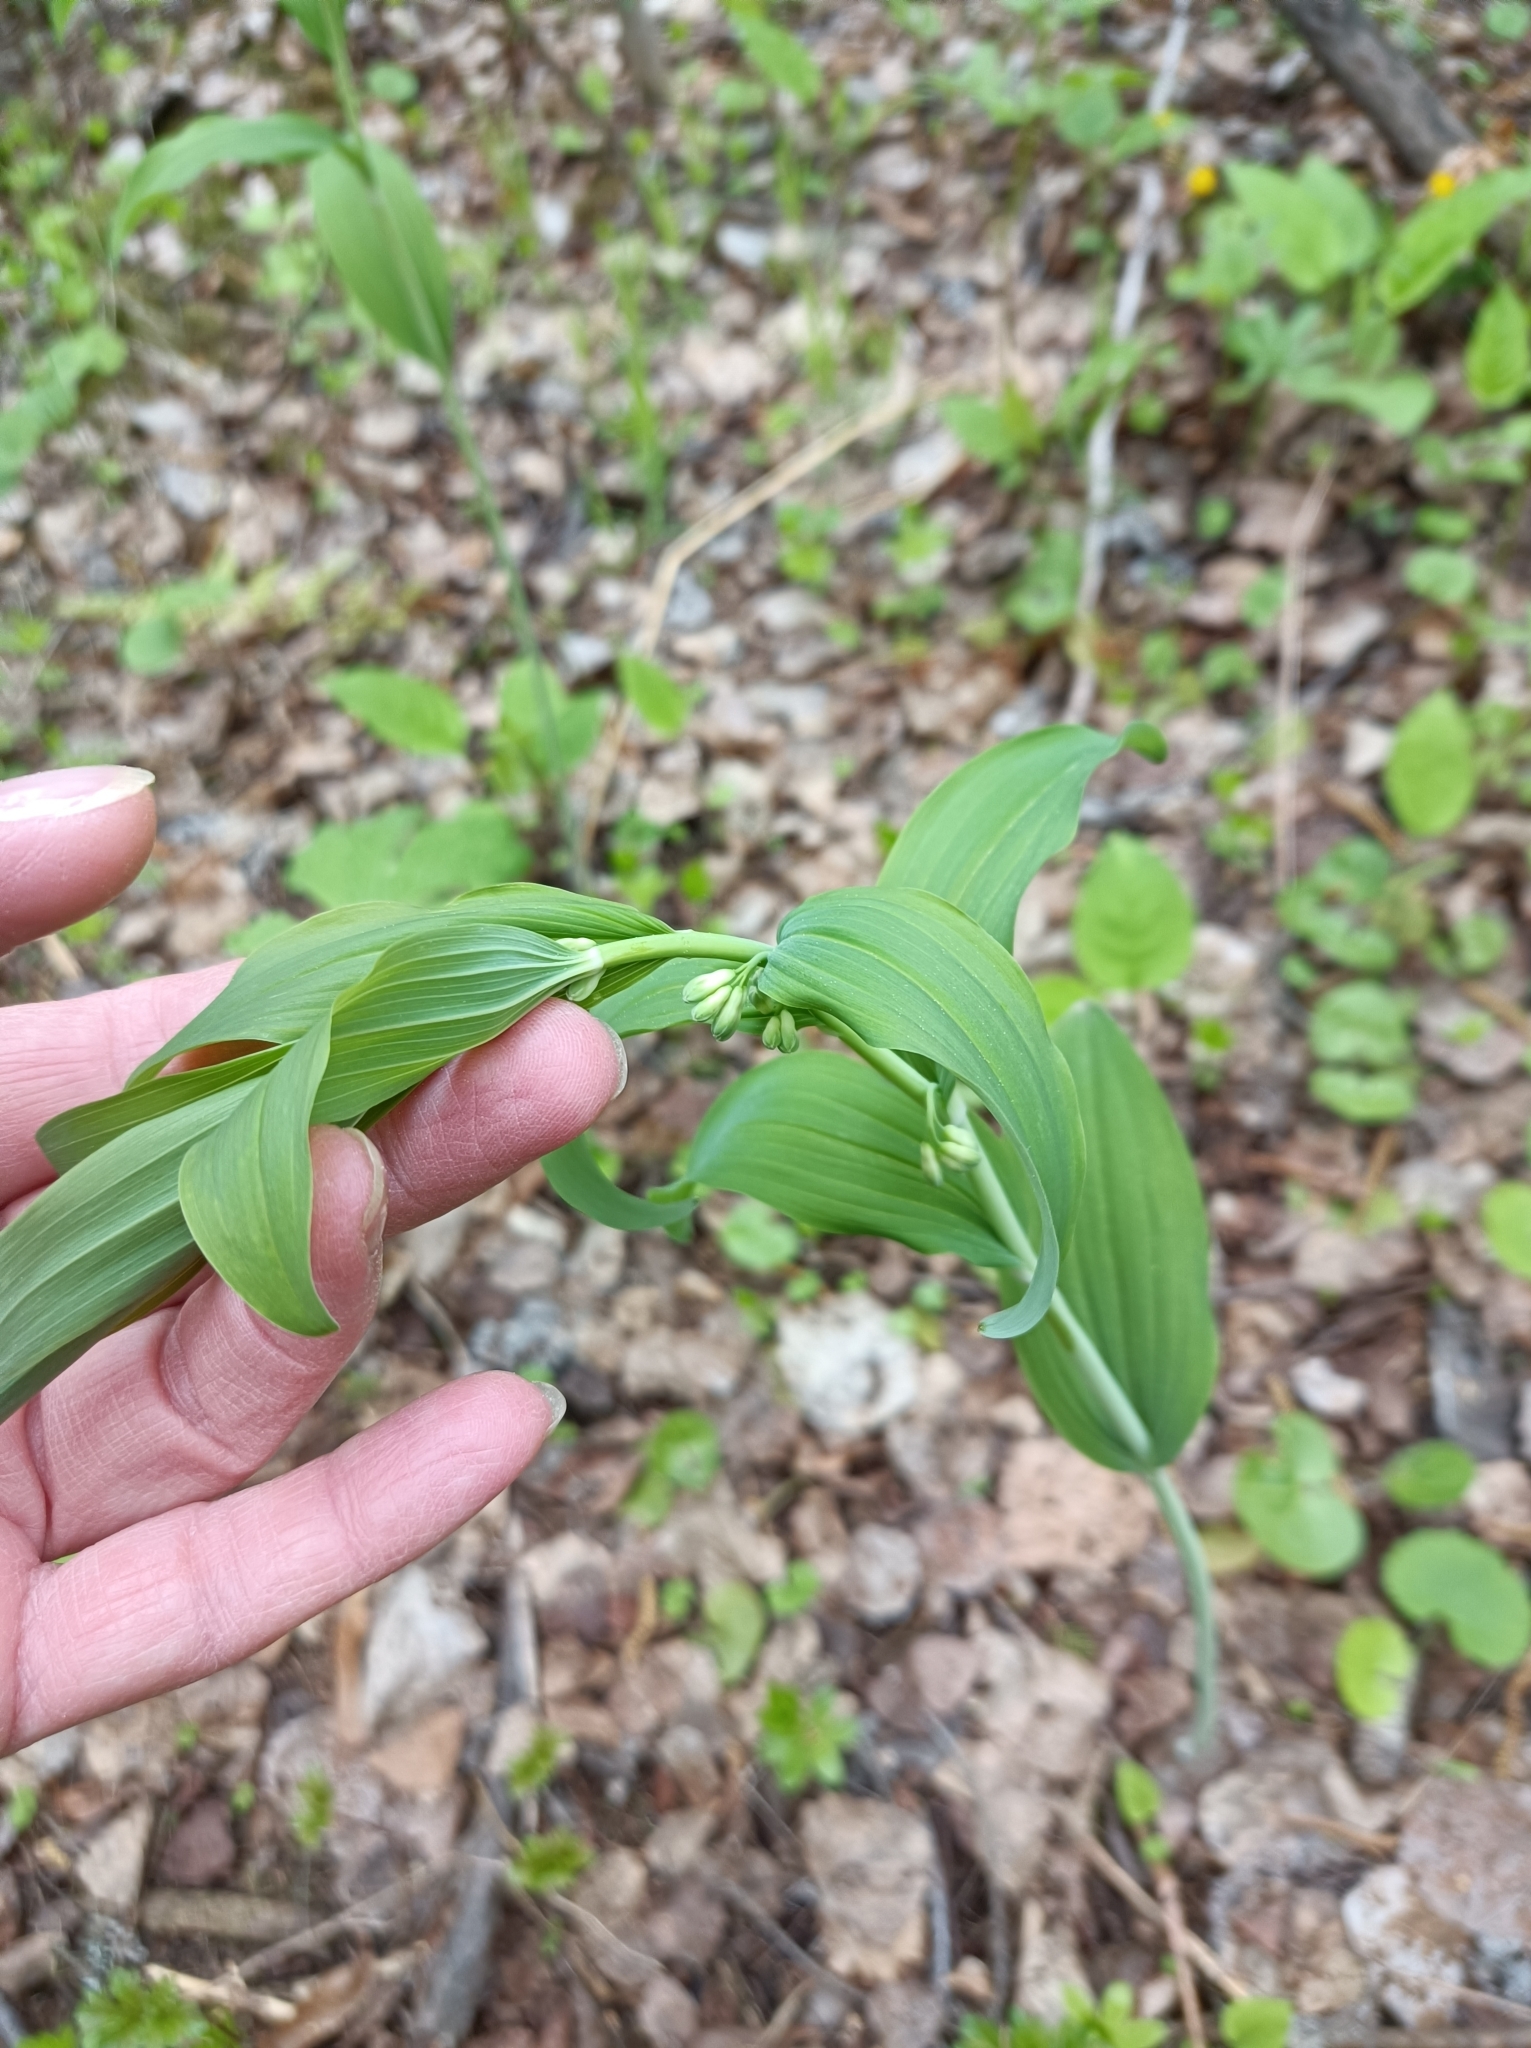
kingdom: Plantae
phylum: Tracheophyta
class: Liliopsida
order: Asparagales
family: Asparagaceae
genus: Polygonatum
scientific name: Polygonatum multiflorum
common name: Solomon's-seal
